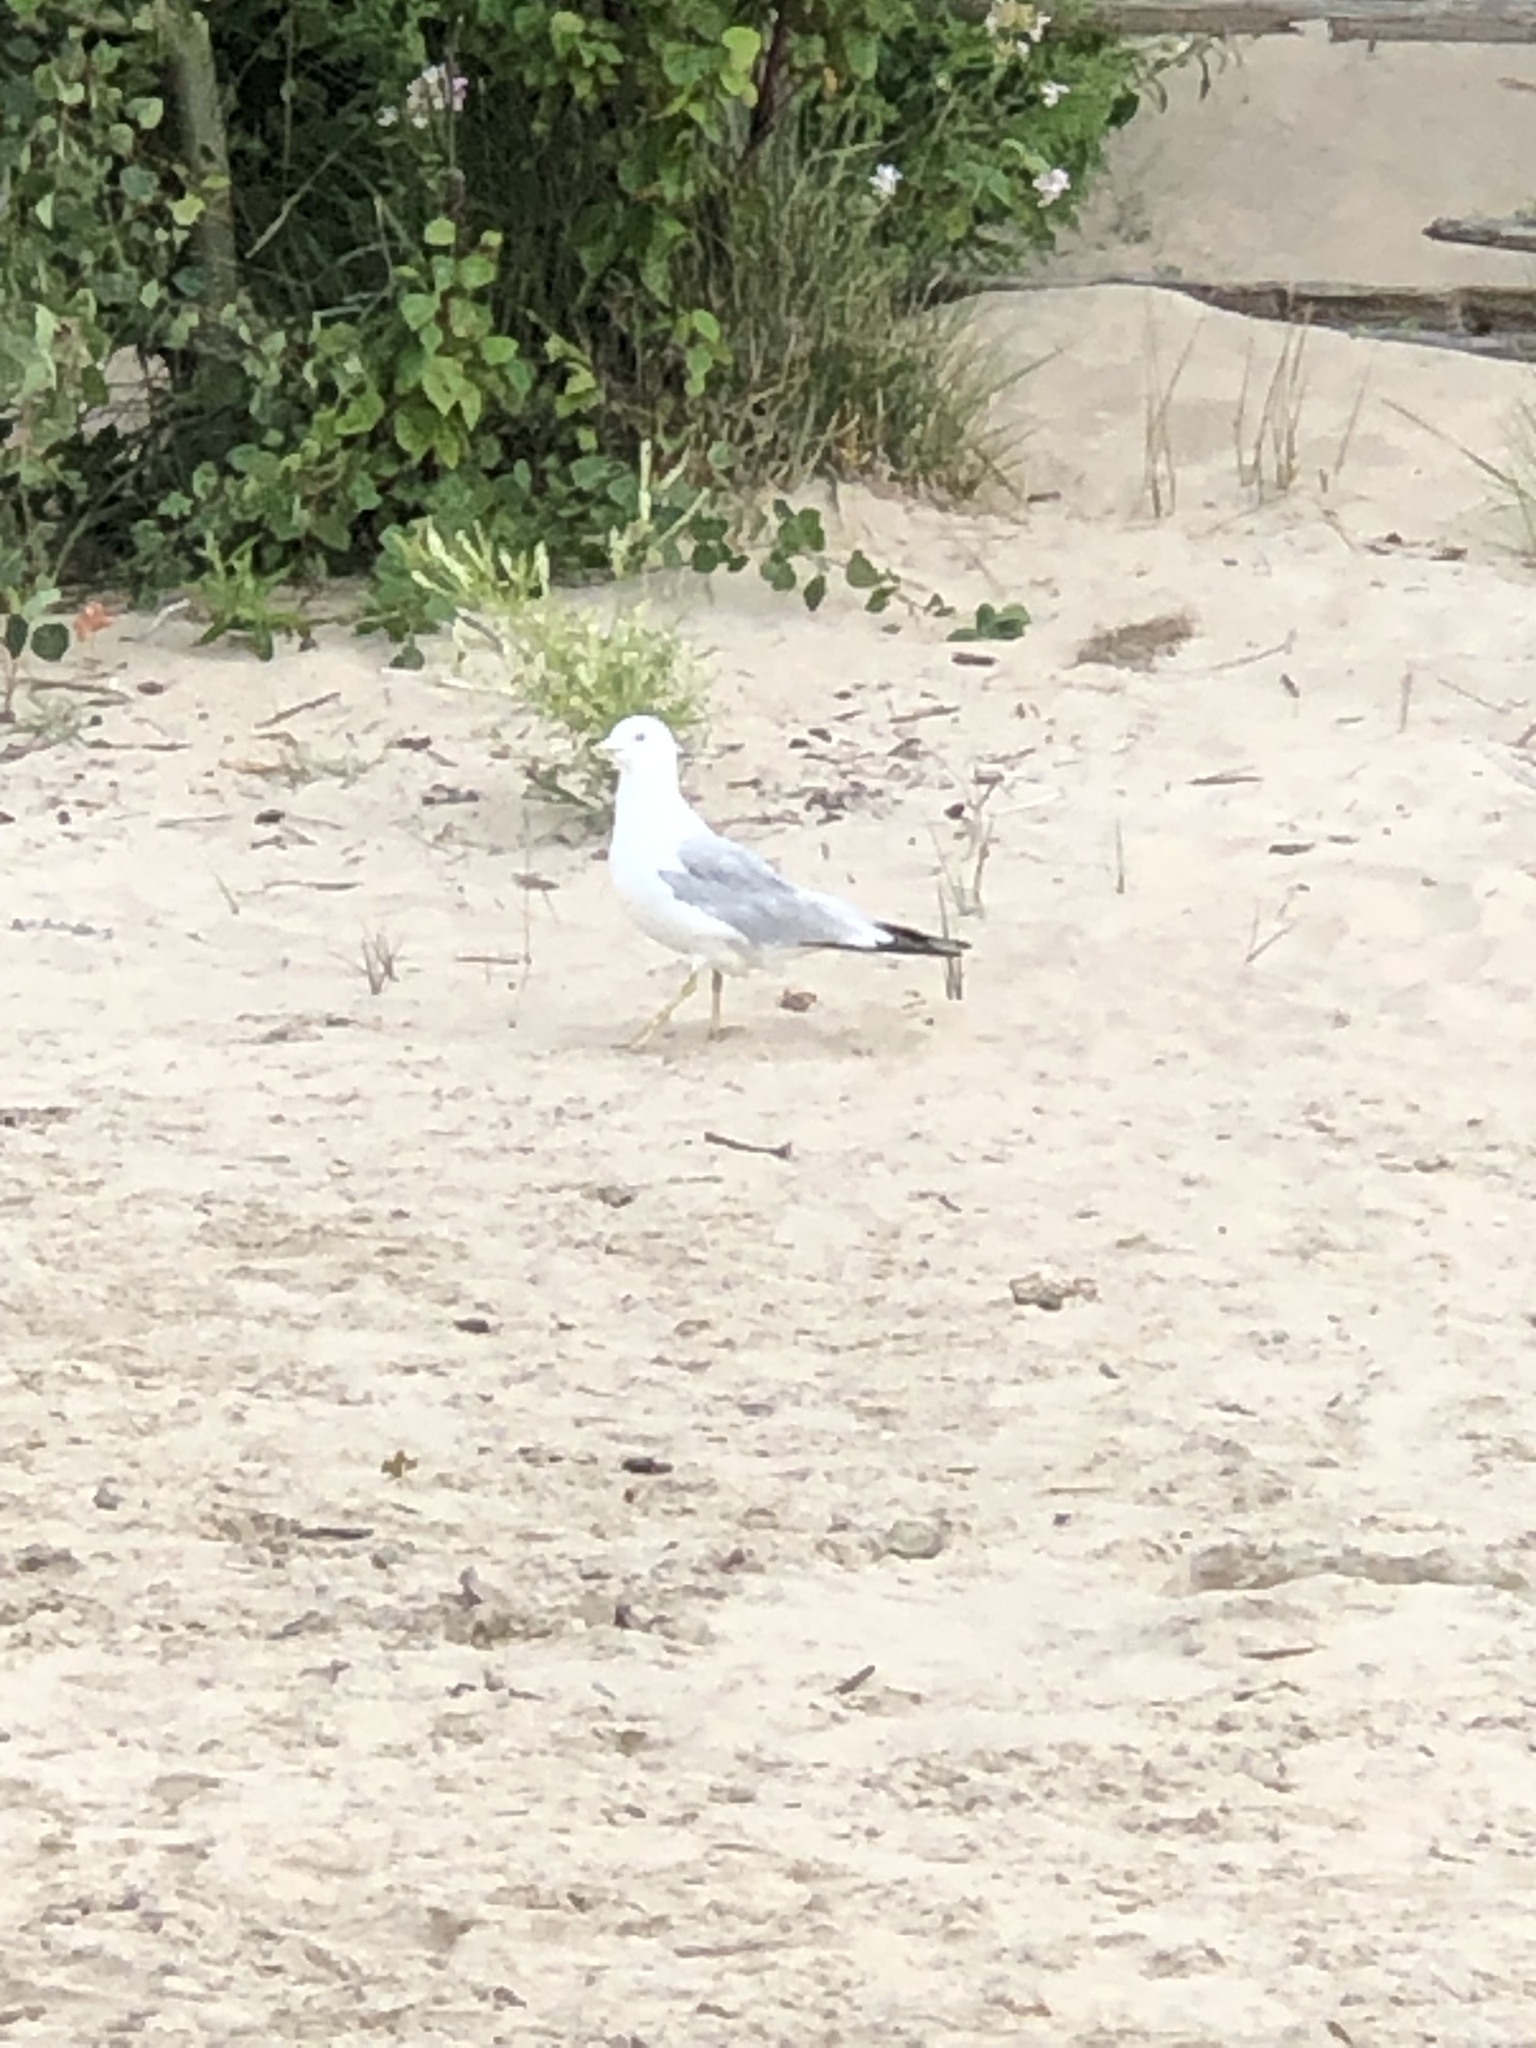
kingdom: Animalia
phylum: Chordata
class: Aves
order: Charadriiformes
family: Laridae
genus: Larus
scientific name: Larus delawarensis
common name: Ring-billed gull
